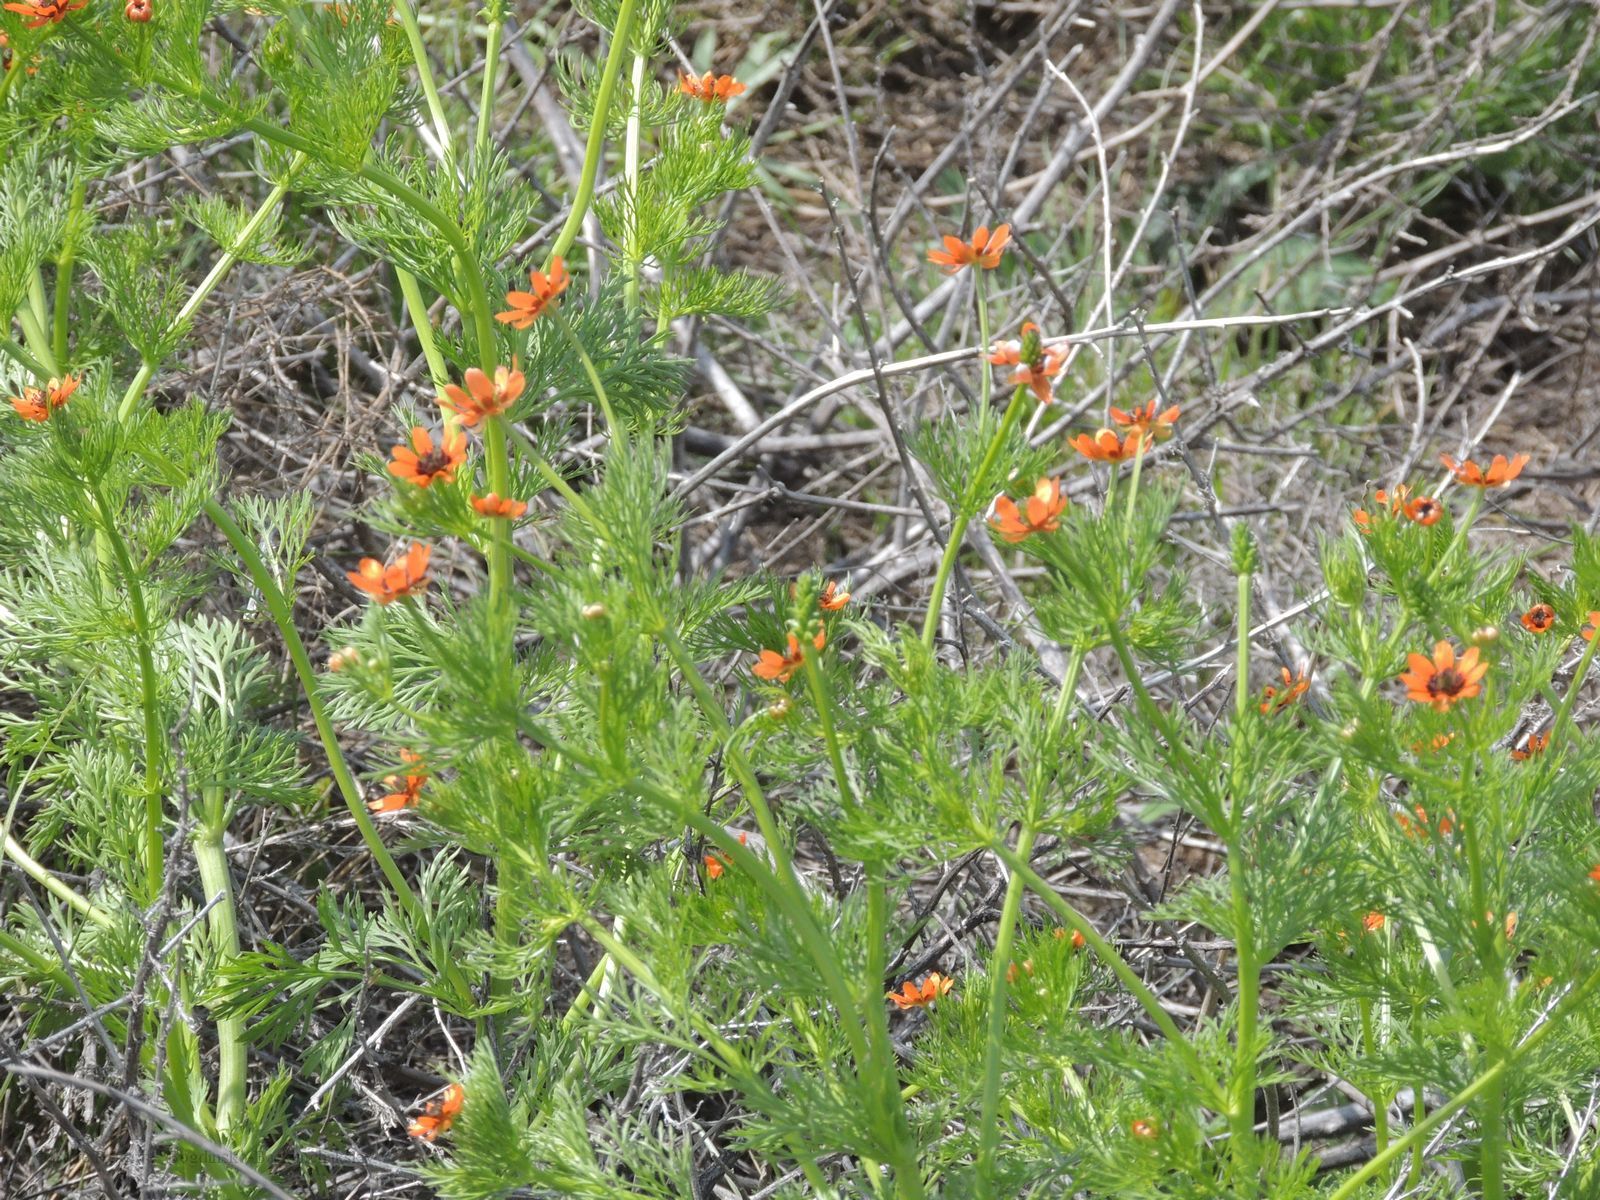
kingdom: Plantae
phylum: Tracheophyta
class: Magnoliopsida
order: Ranunculales
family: Ranunculaceae
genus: Adonis
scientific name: Adonis aestivalis
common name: Summer pheasant's-eye
